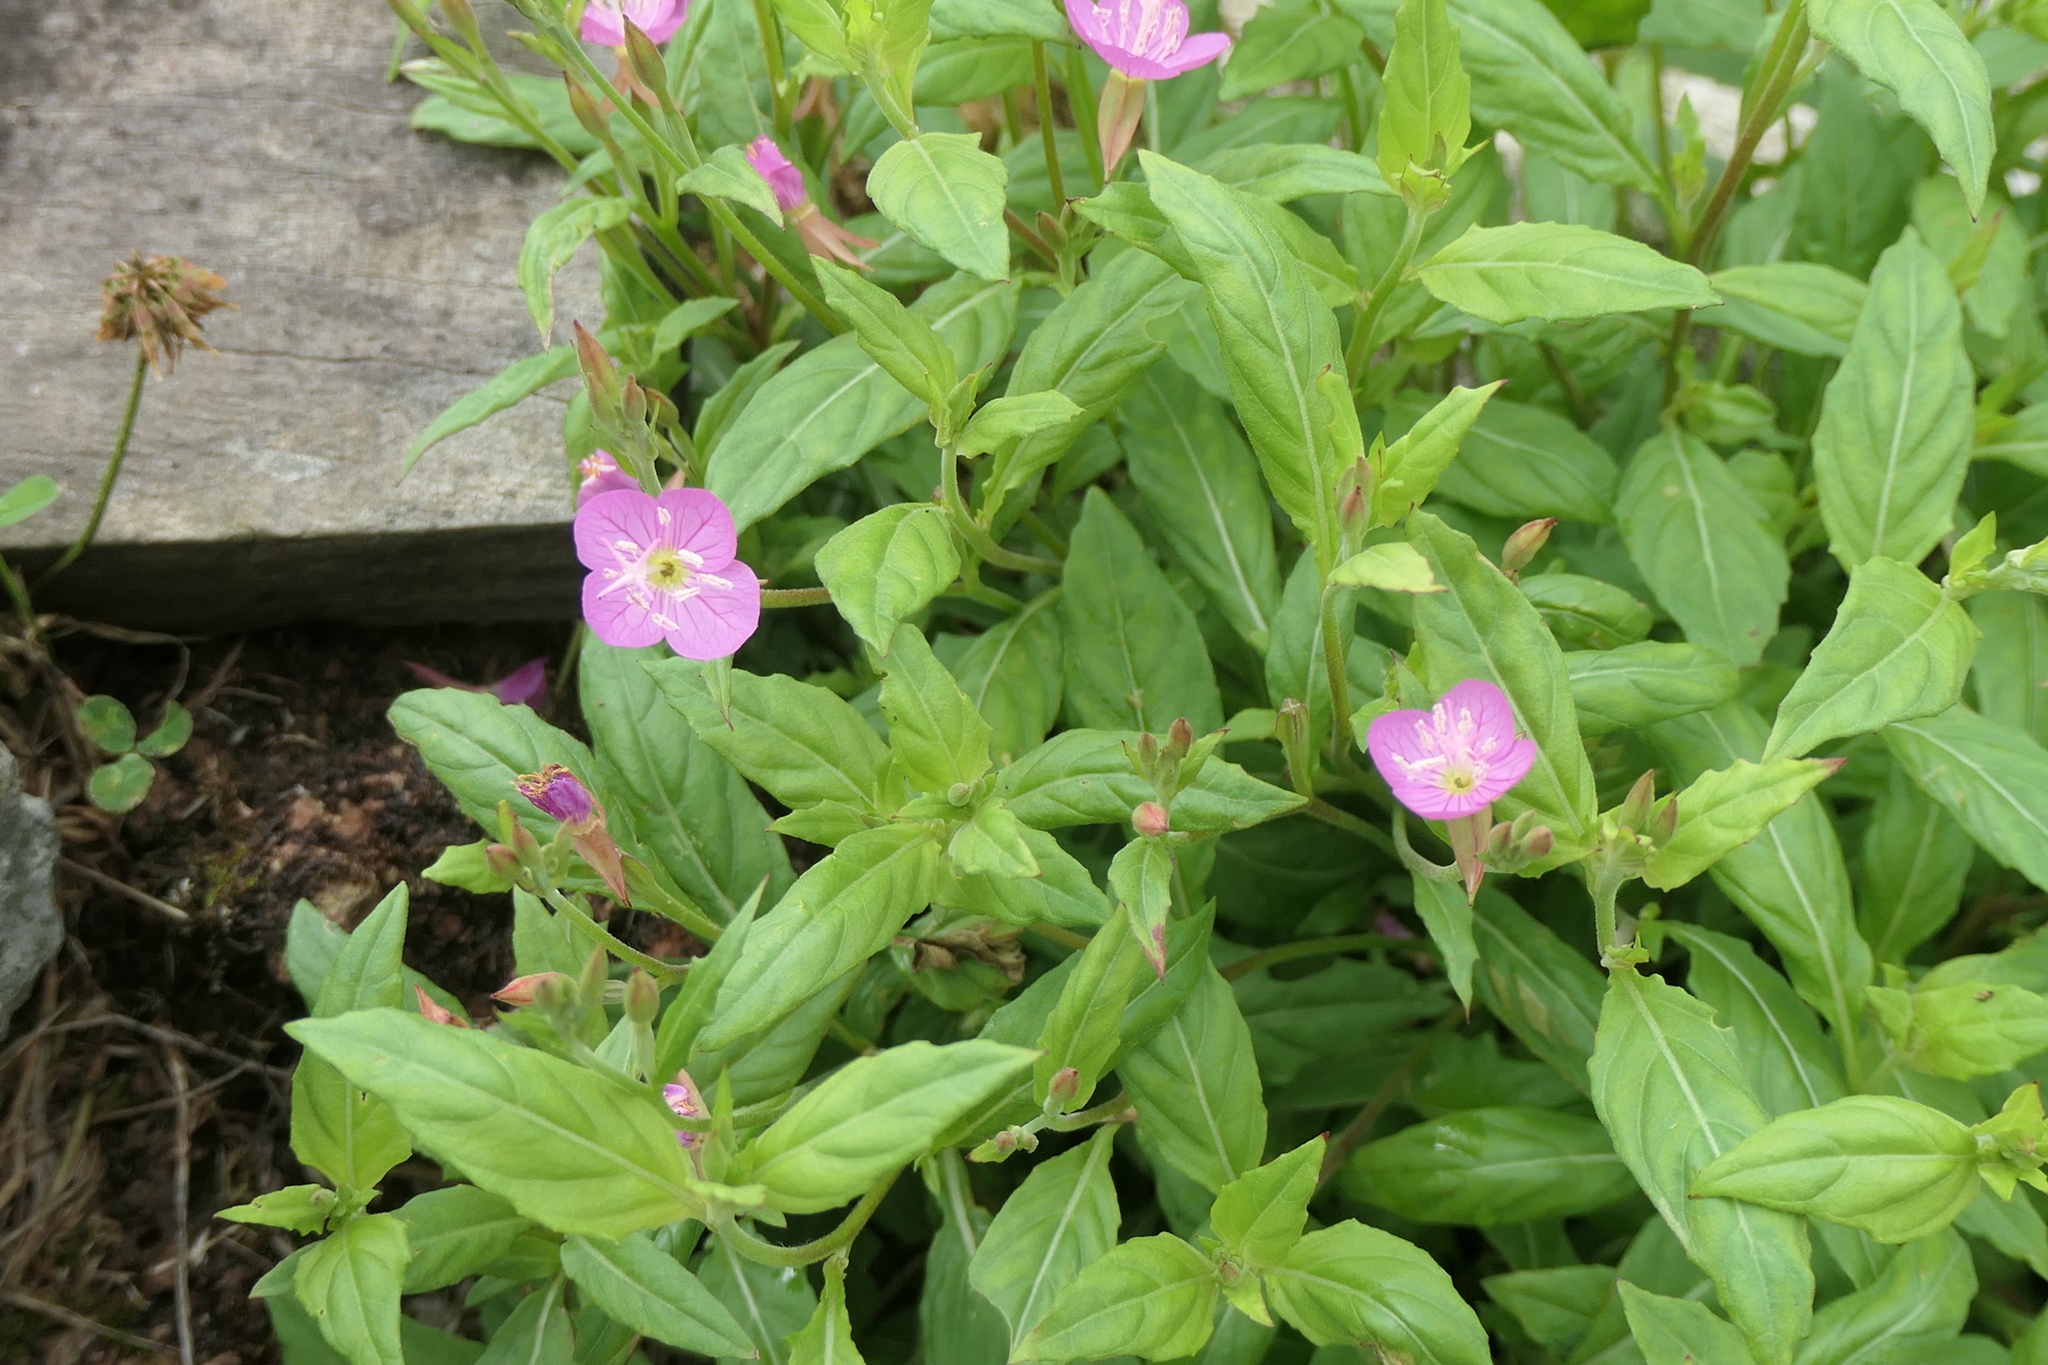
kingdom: Plantae
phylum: Tracheophyta
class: Magnoliopsida
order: Myrtales
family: Onagraceae
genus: Oenothera
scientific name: Oenothera rosea
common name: Rosy evening-primrose
